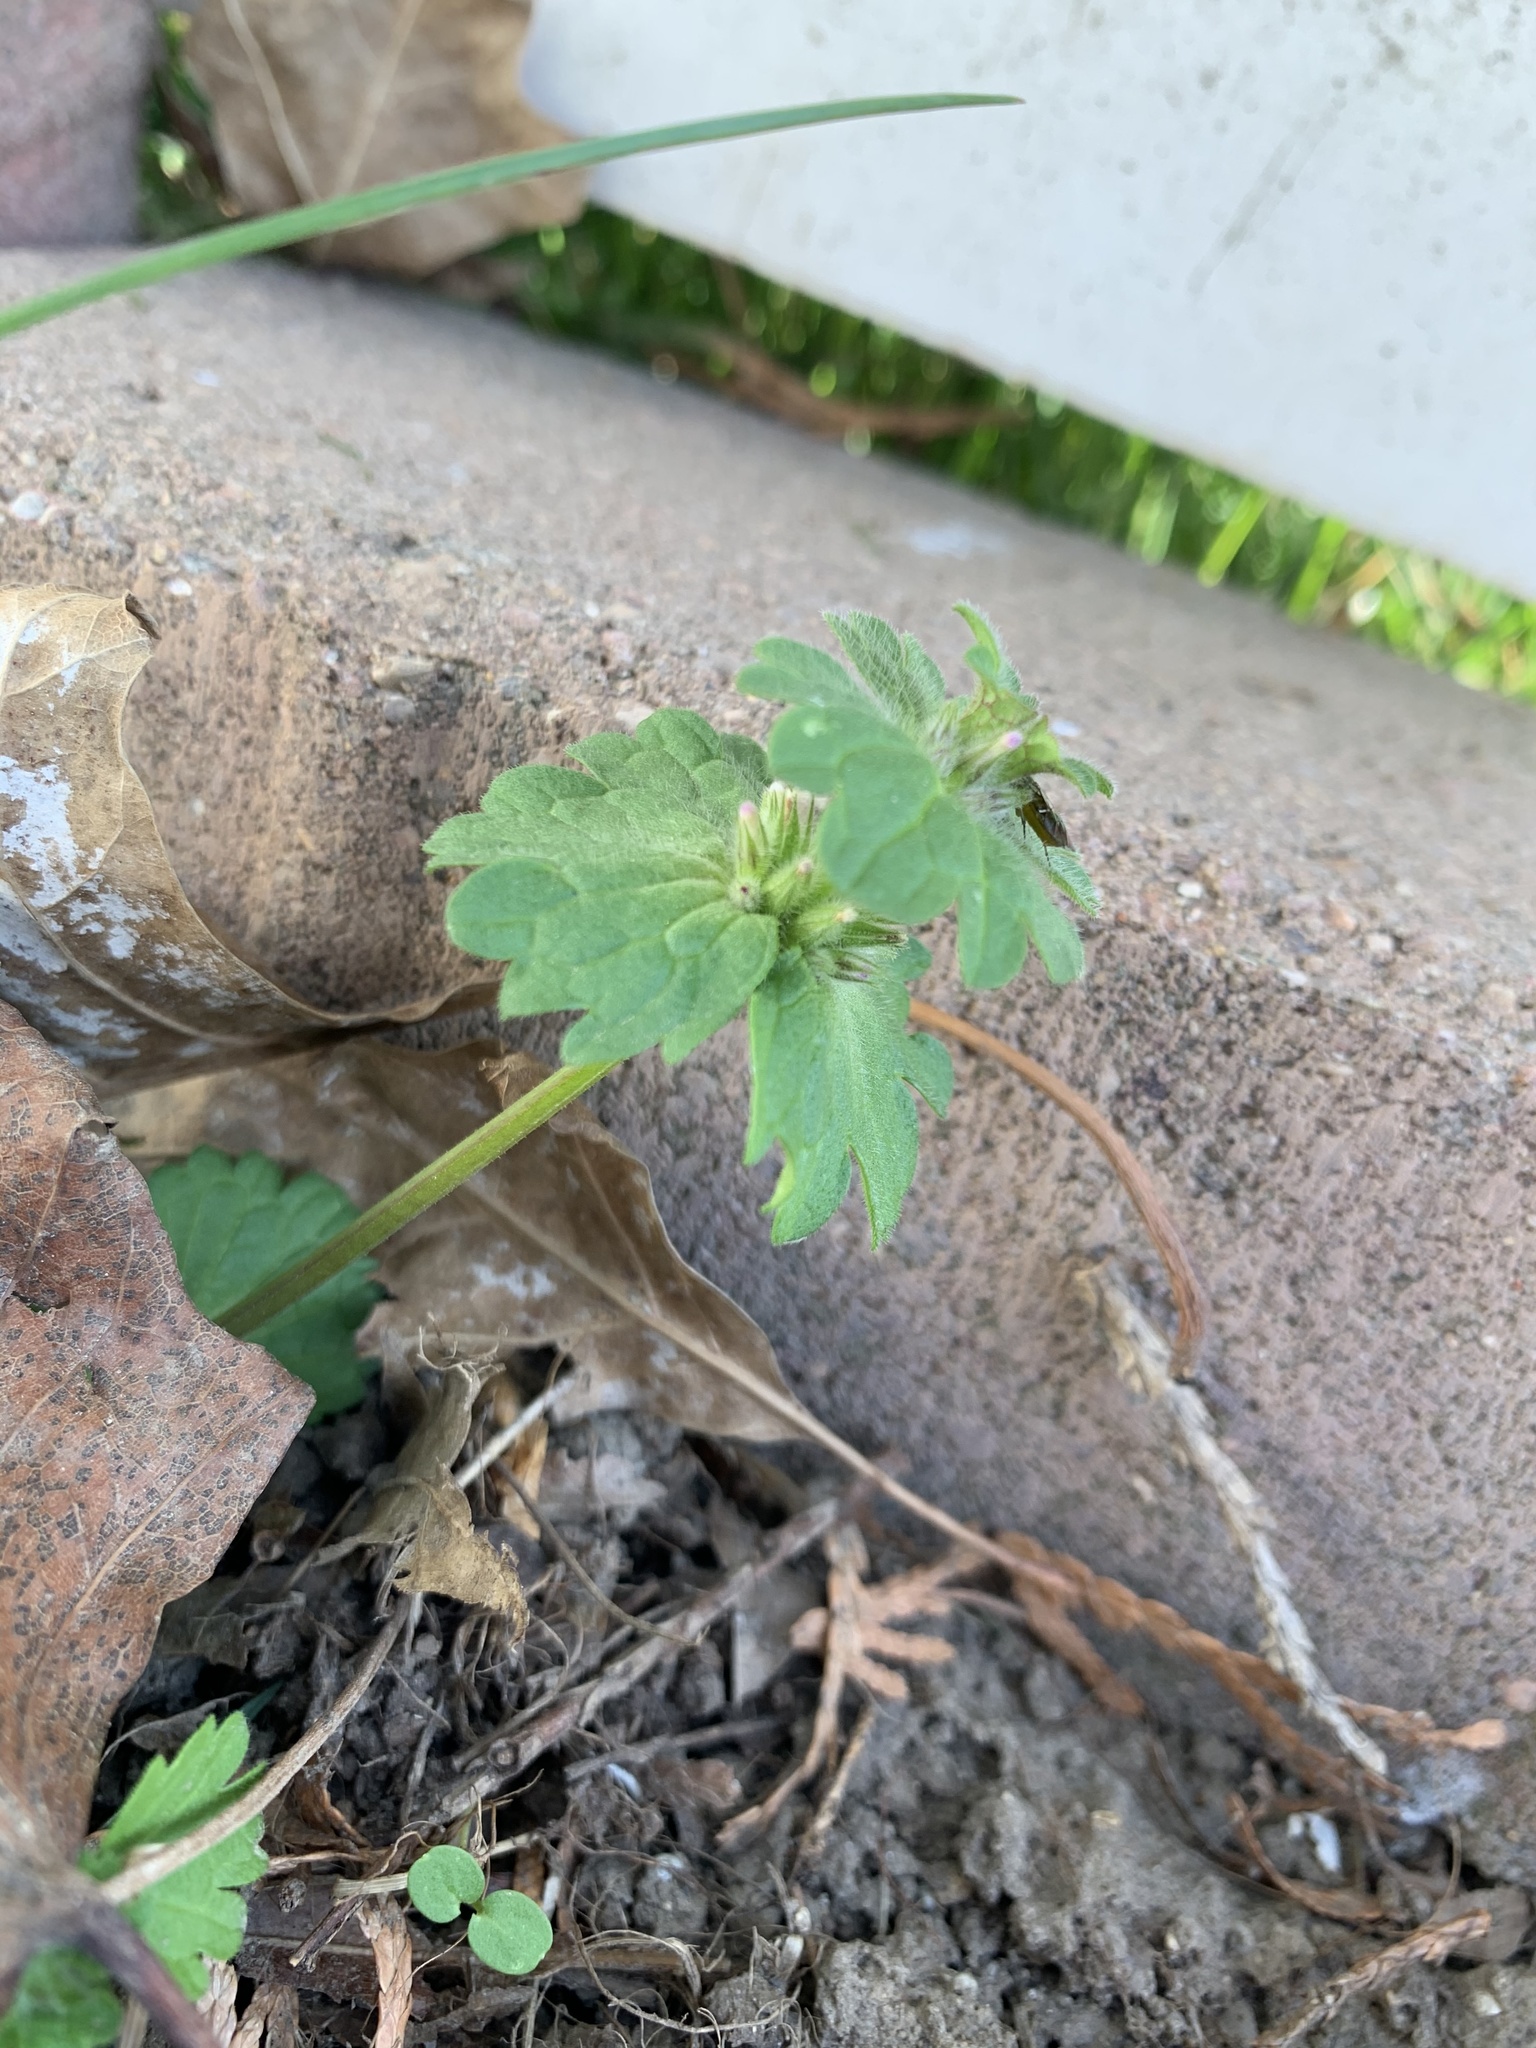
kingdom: Plantae
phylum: Tracheophyta
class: Magnoliopsida
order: Lamiales
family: Lamiaceae
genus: Lamium
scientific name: Lamium amplexicaule
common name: Henbit dead-nettle
